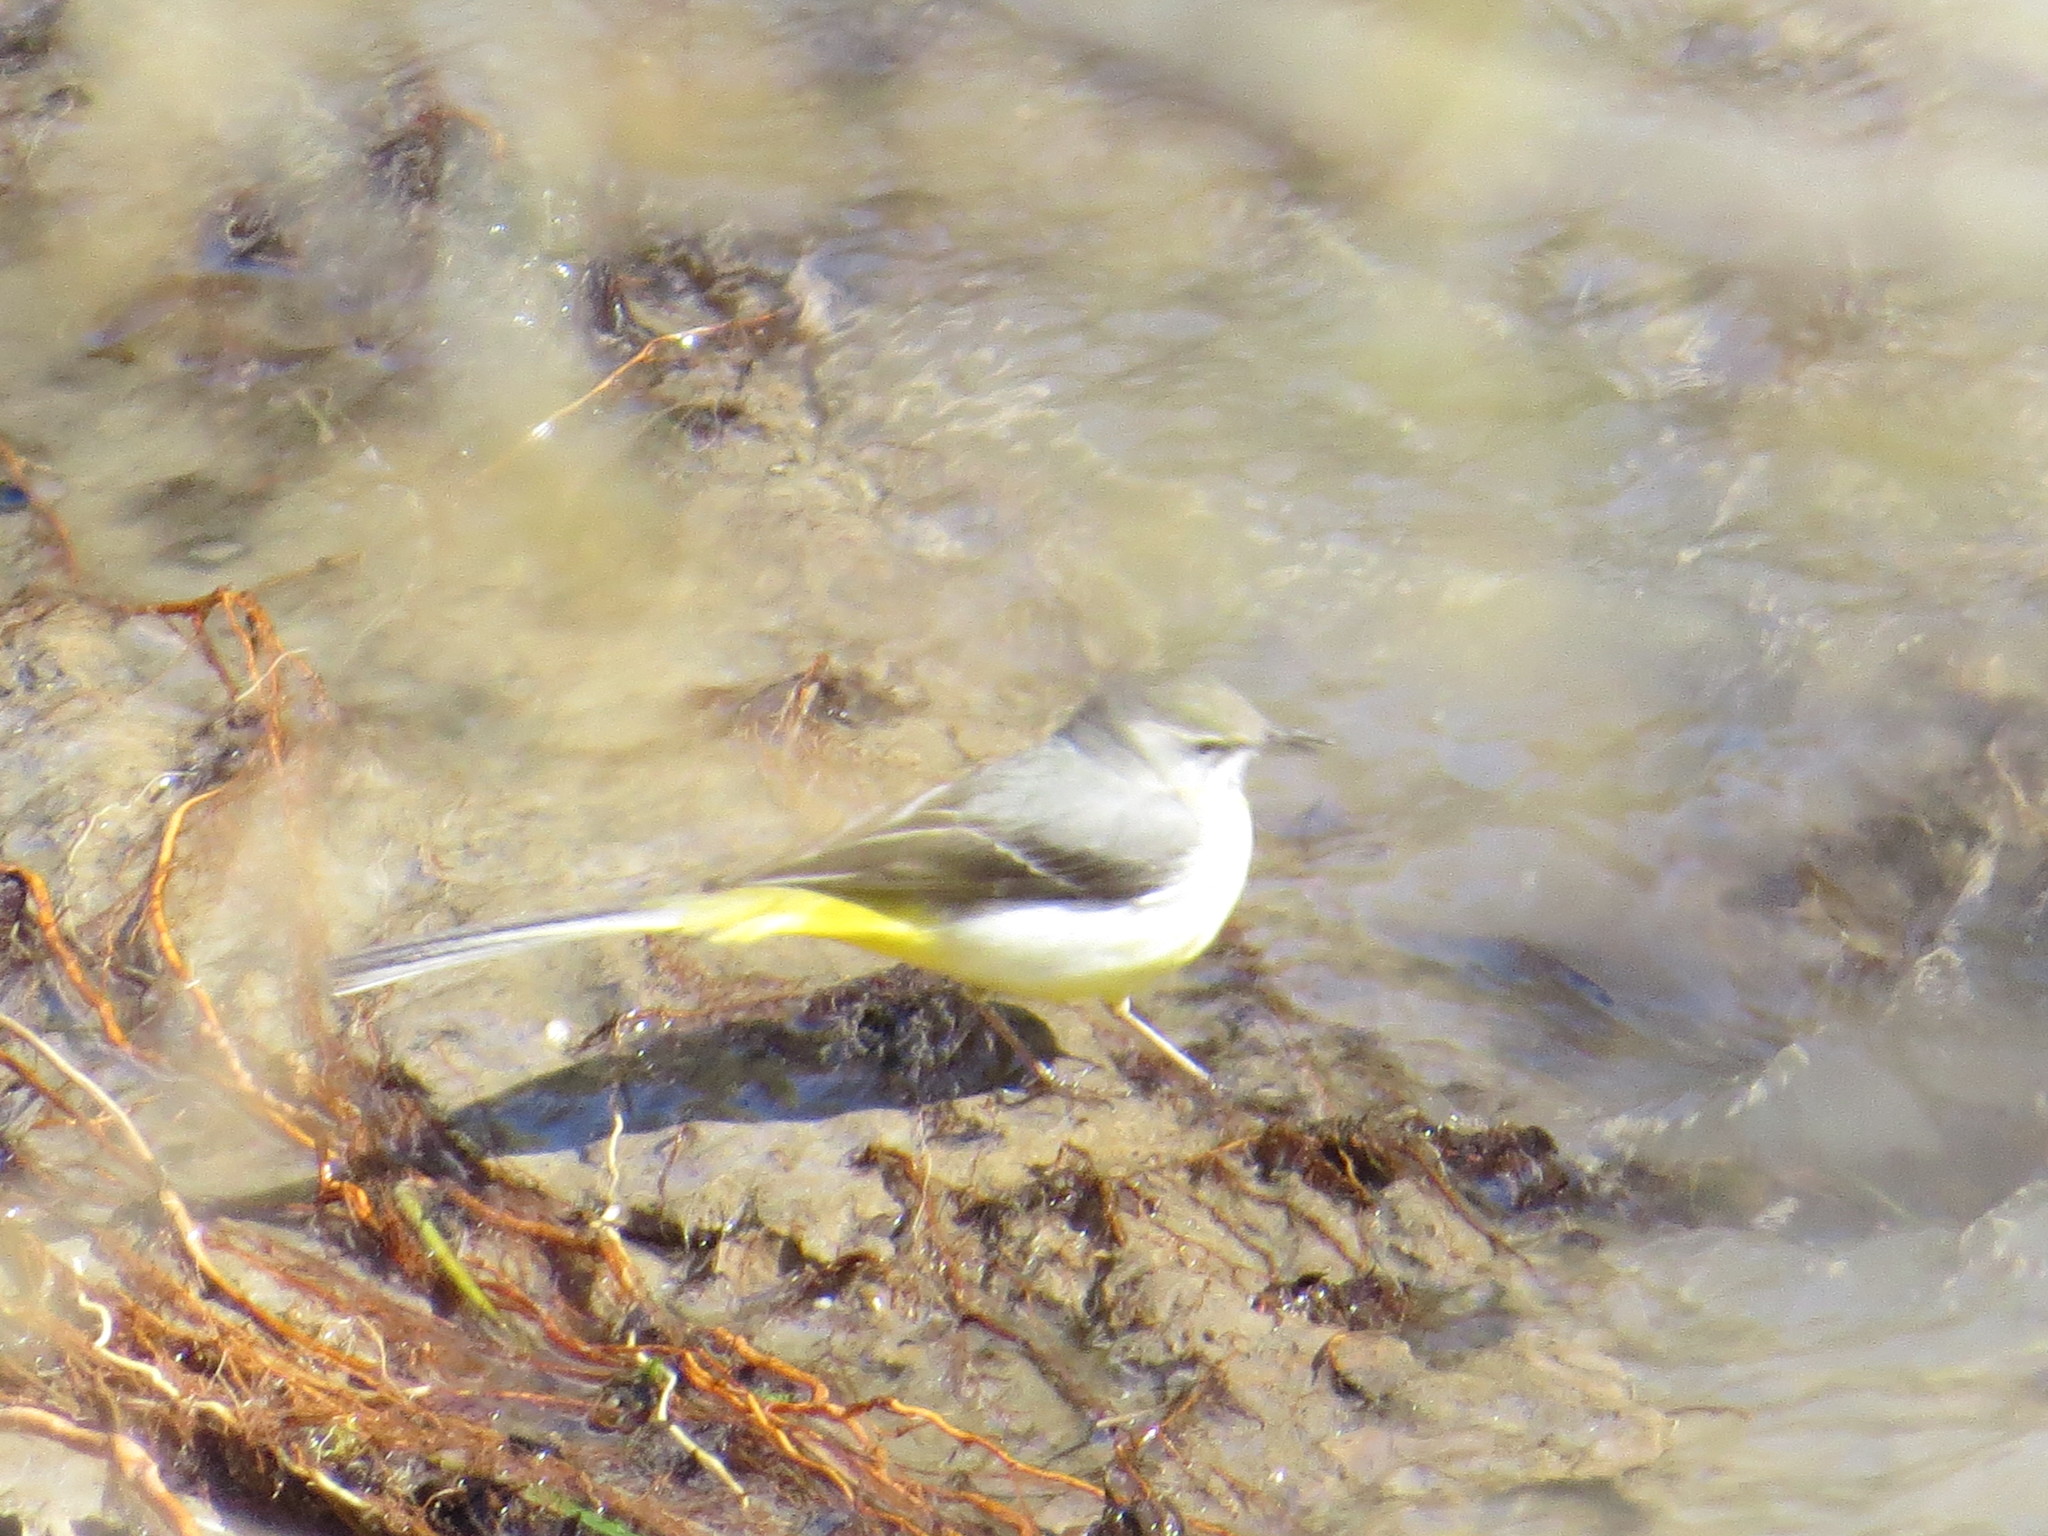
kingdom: Animalia
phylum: Chordata
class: Aves
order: Passeriformes
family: Motacillidae
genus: Motacilla
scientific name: Motacilla cinerea
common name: Grey wagtail
